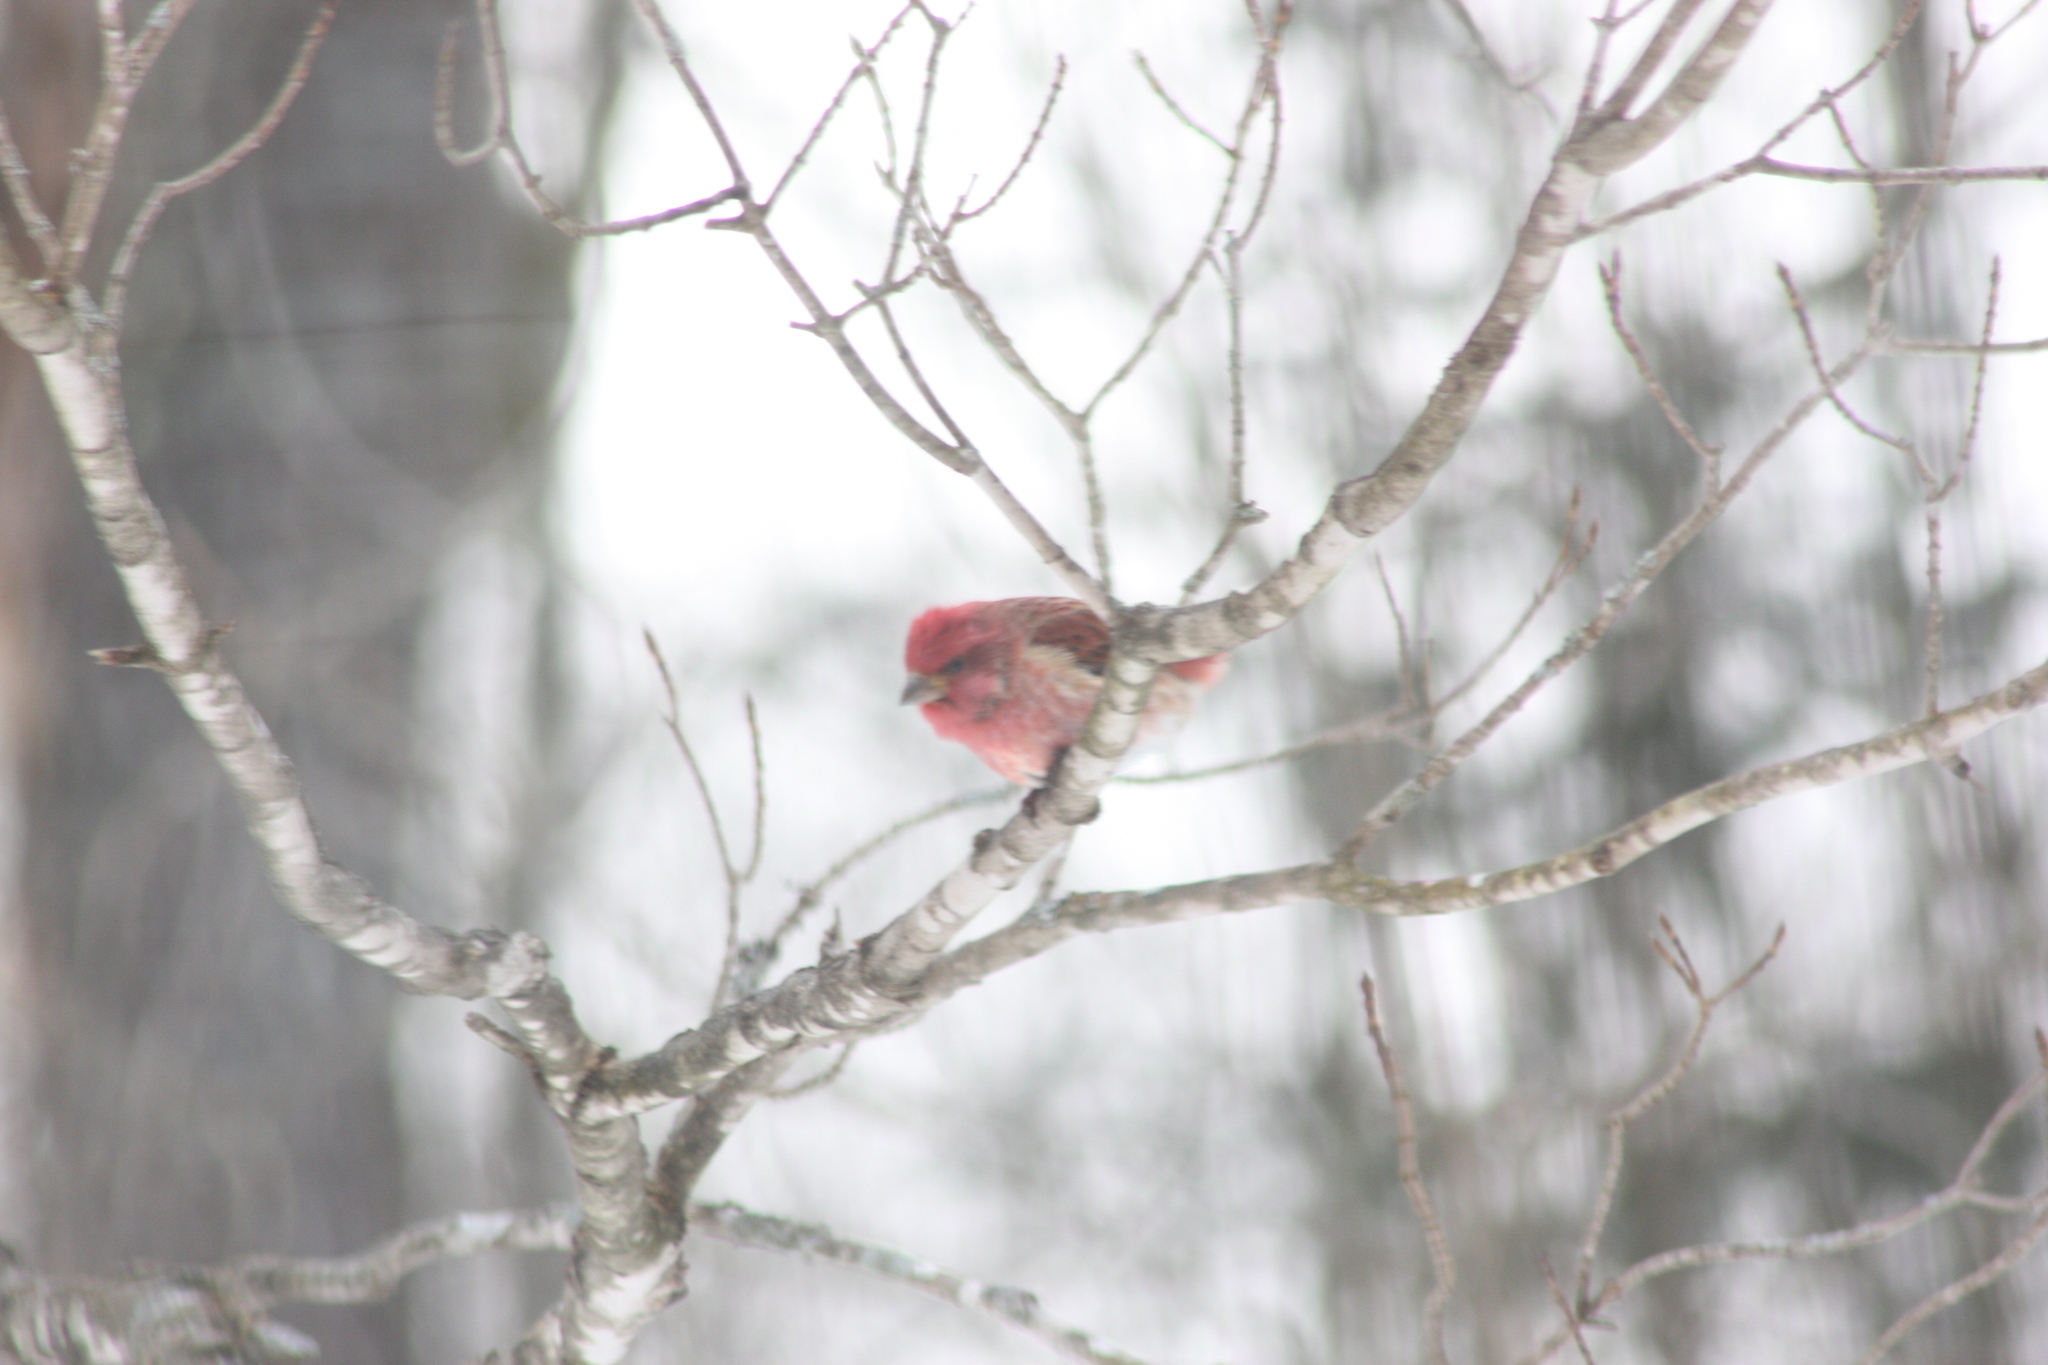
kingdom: Animalia
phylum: Chordata
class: Aves
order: Passeriformes
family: Fringillidae
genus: Haemorhous
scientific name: Haemorhous purpureus
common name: Purple finch
